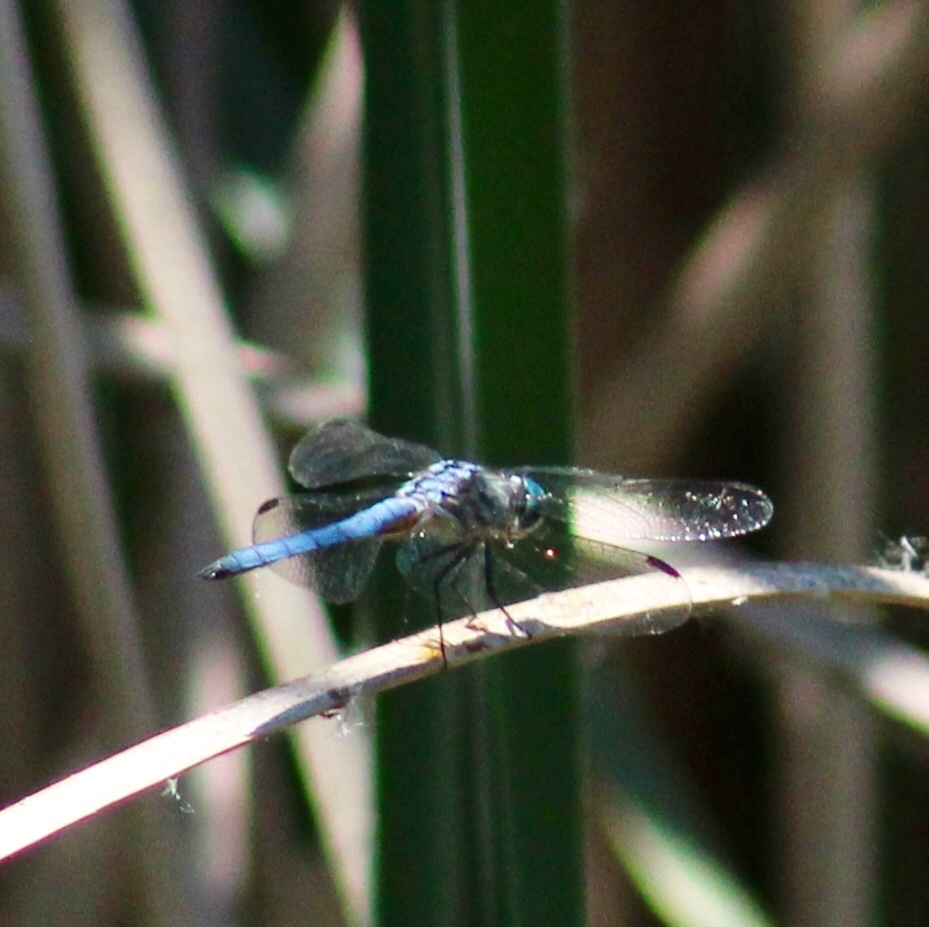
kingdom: Animalia
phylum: Arthropoda
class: Insecta
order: Odonata
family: Libellulidae
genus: Pachydiplax
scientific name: Pachydiplax longipennis
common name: Blue dasher
